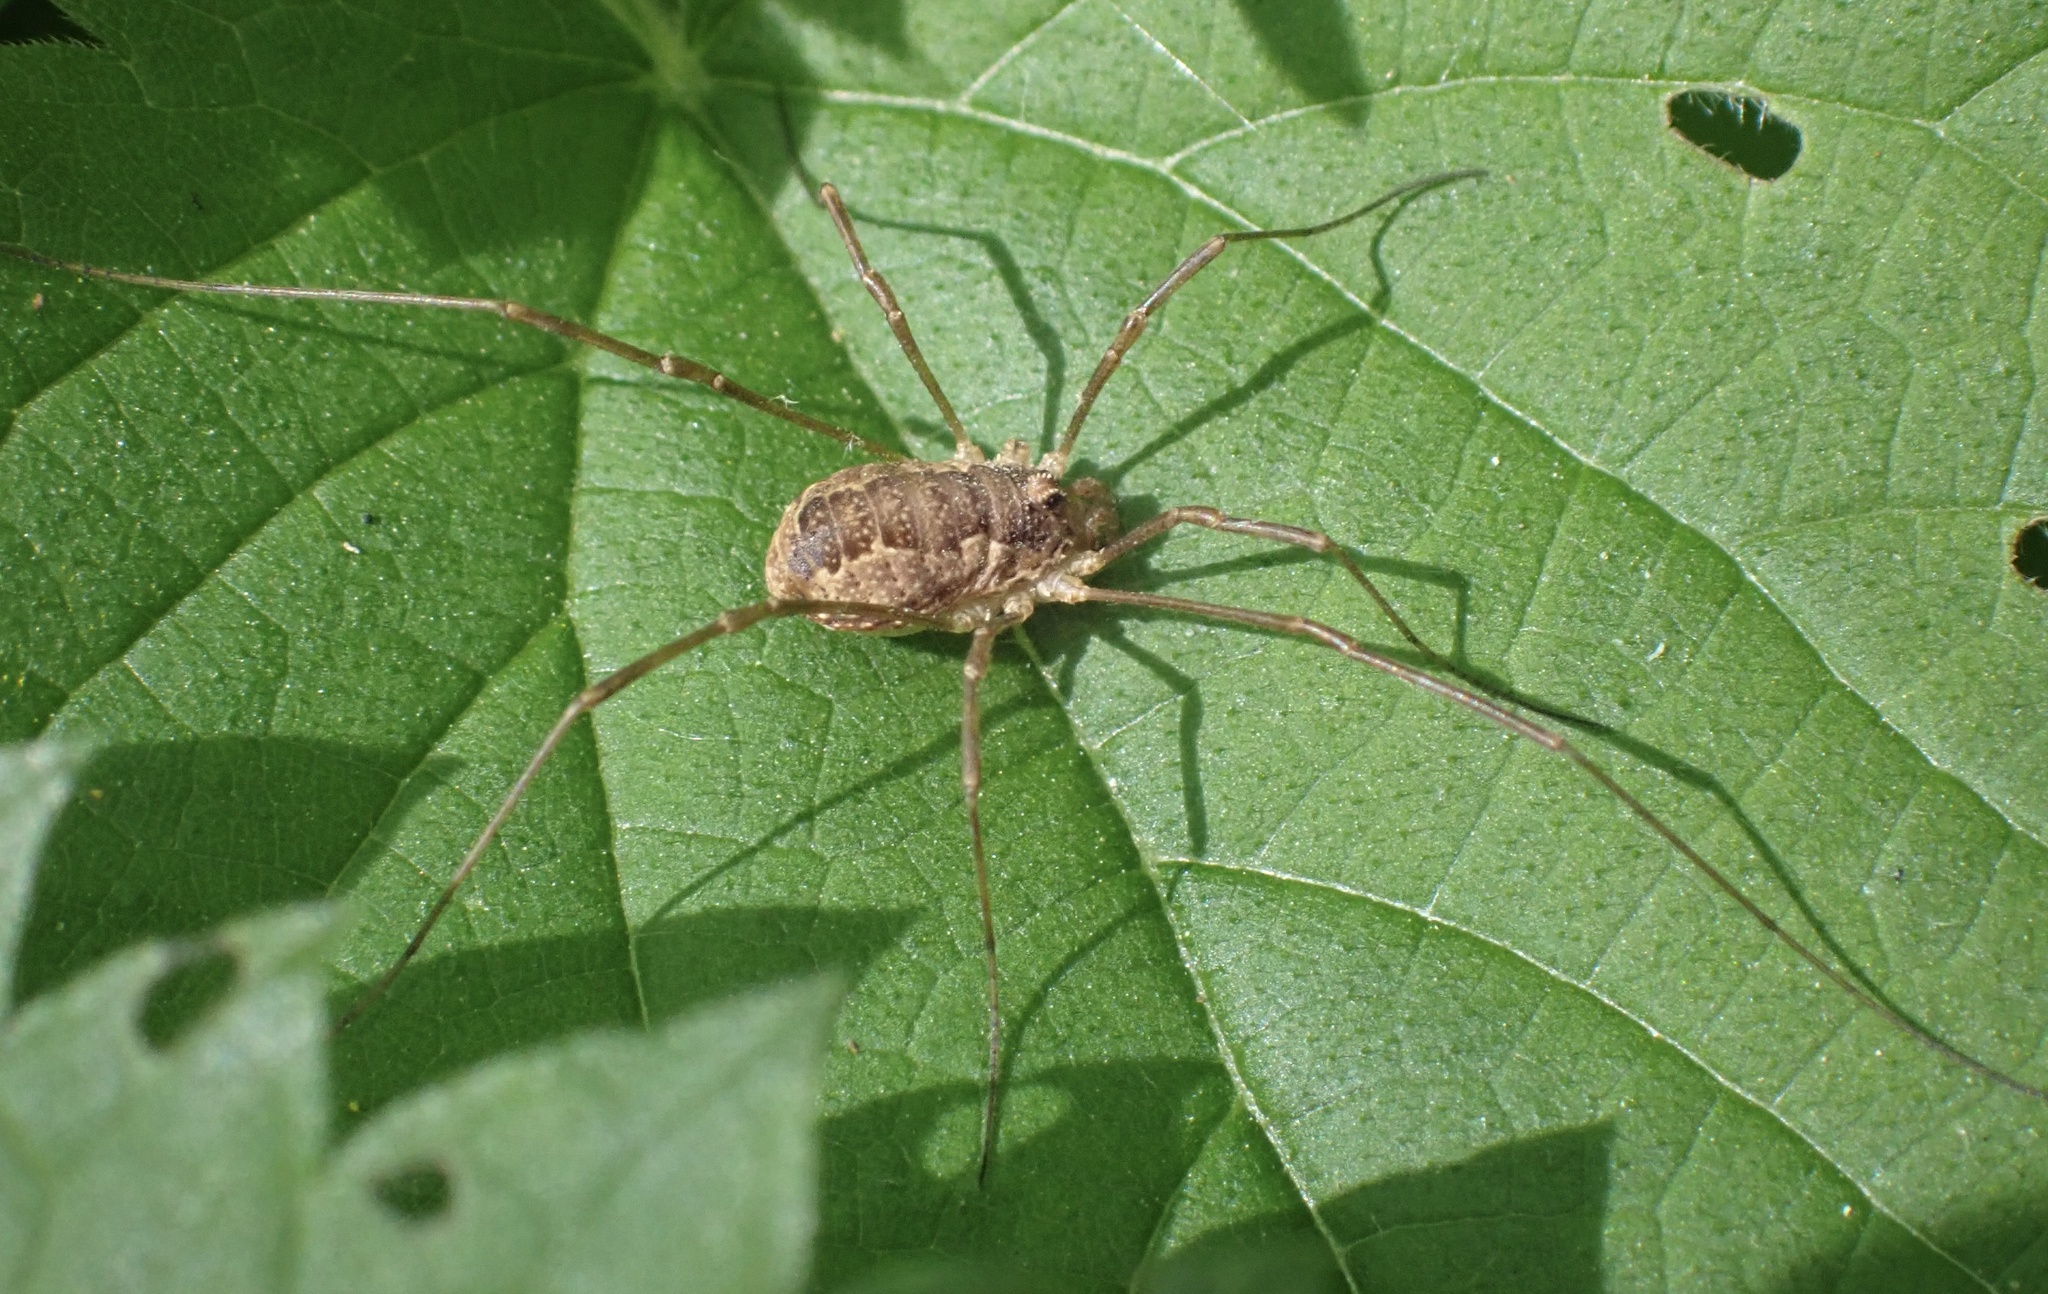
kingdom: Animalia
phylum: Arthropoda
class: Arachnida
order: Opiliones
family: Phalangiidae
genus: Rilaena
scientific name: Rilaena triangularis
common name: Spring harvestman
